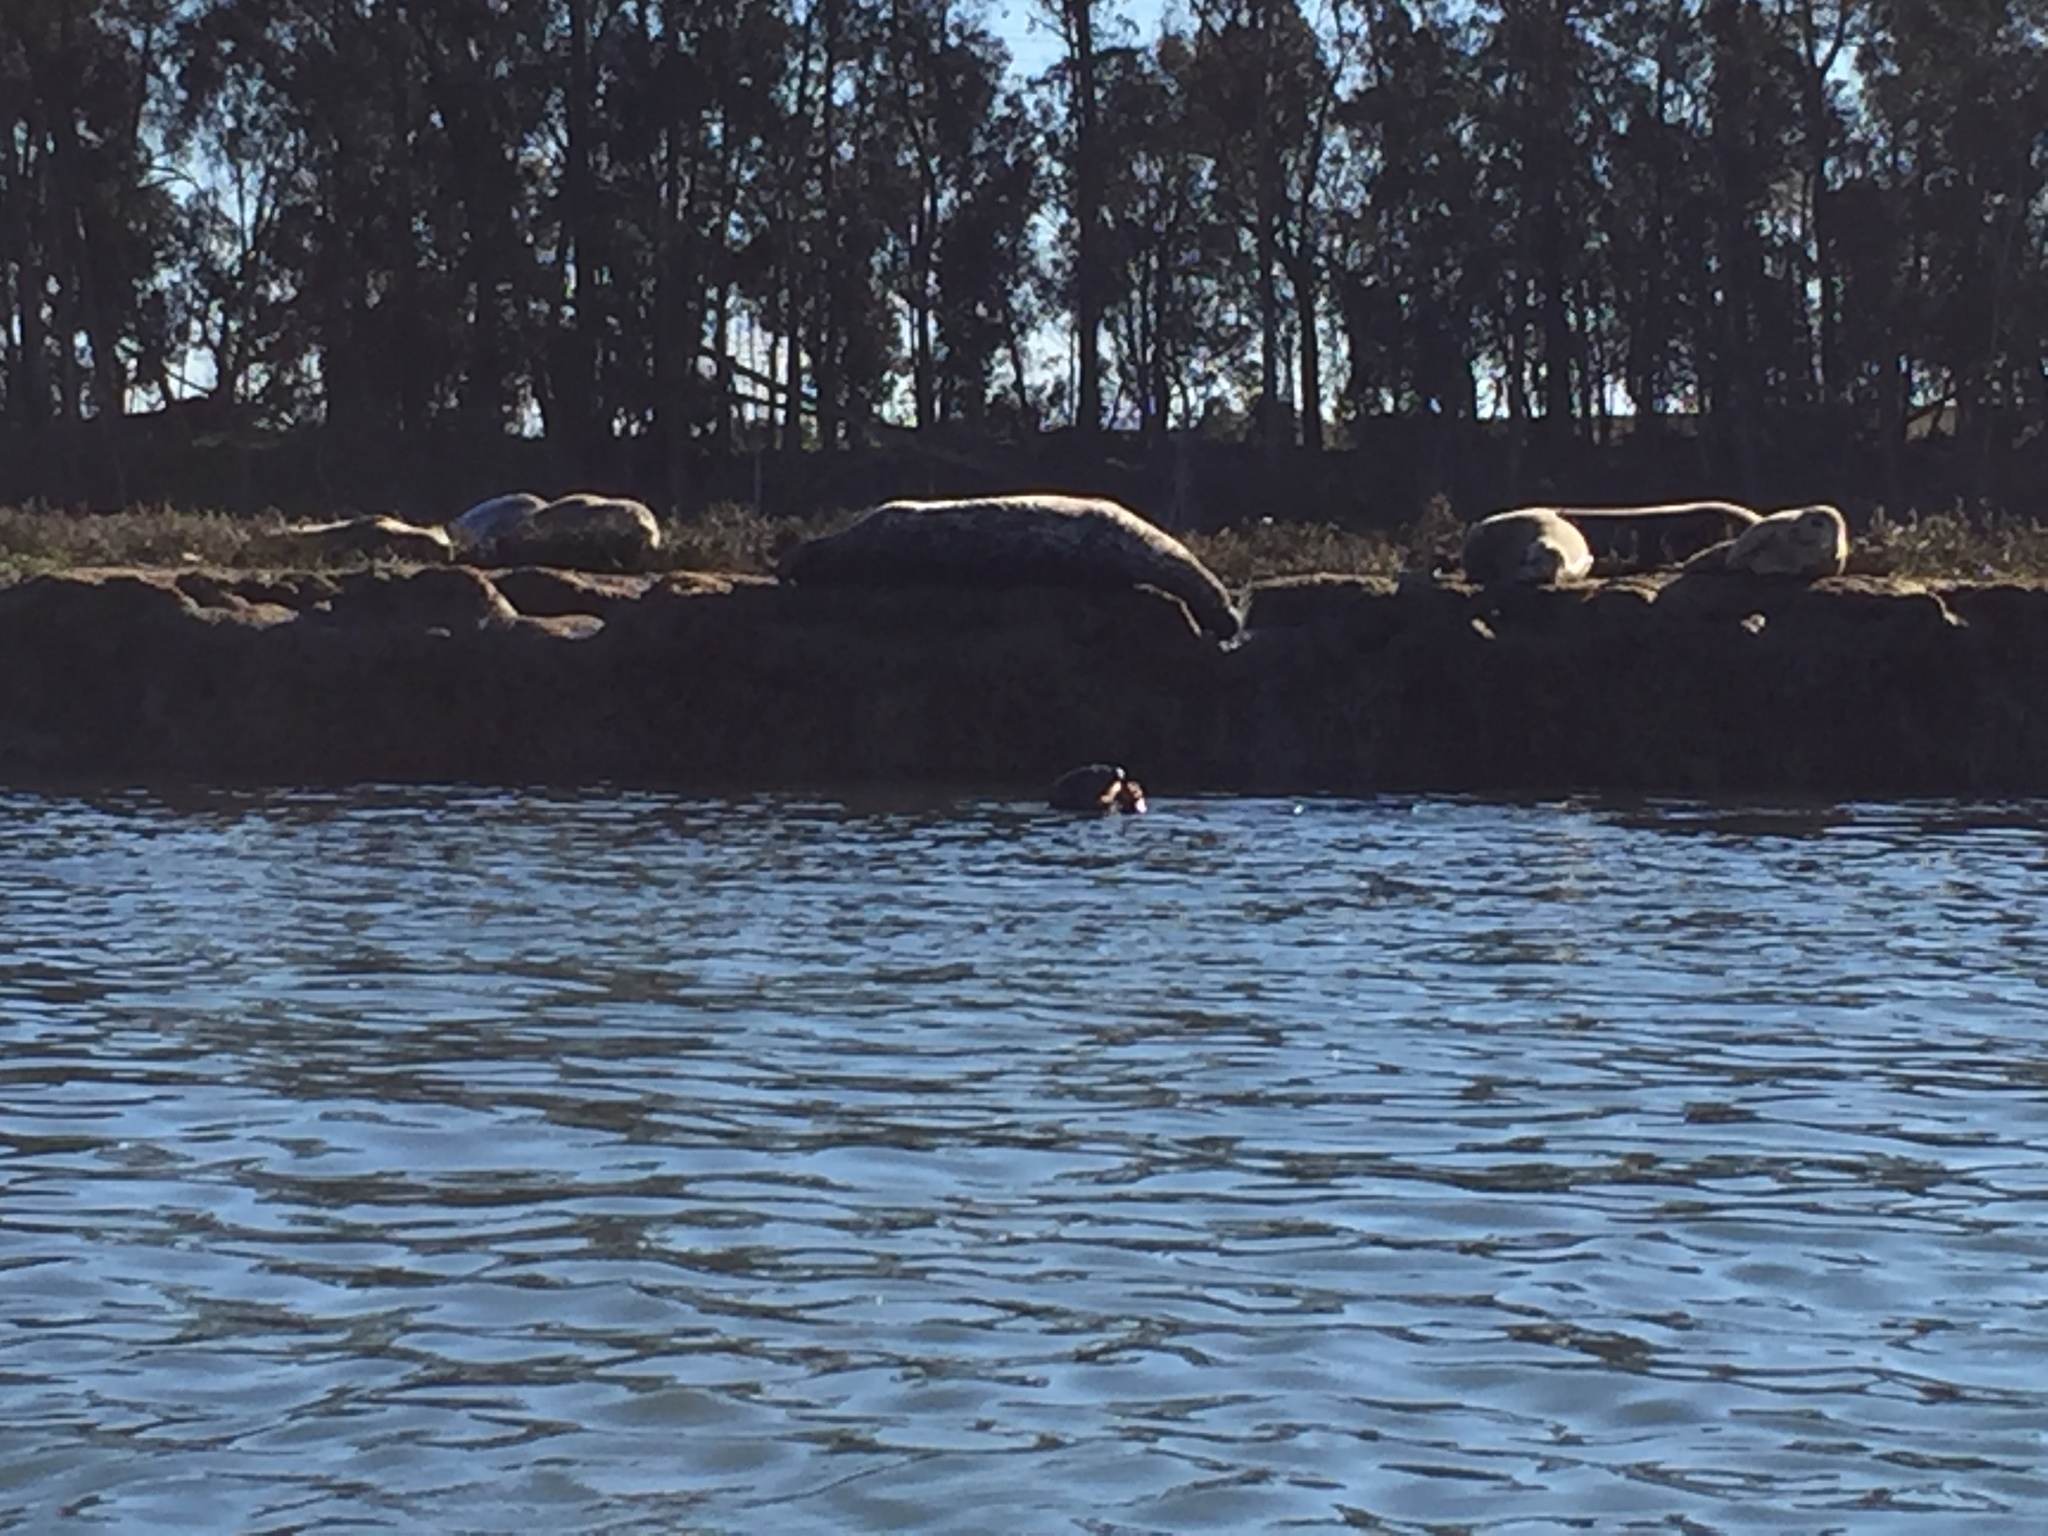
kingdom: Animalia
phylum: Chordata
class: Mammalia
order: Carnivora
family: Phocidae
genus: Phoca
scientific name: Phoca vitulina
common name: Harbor seal
